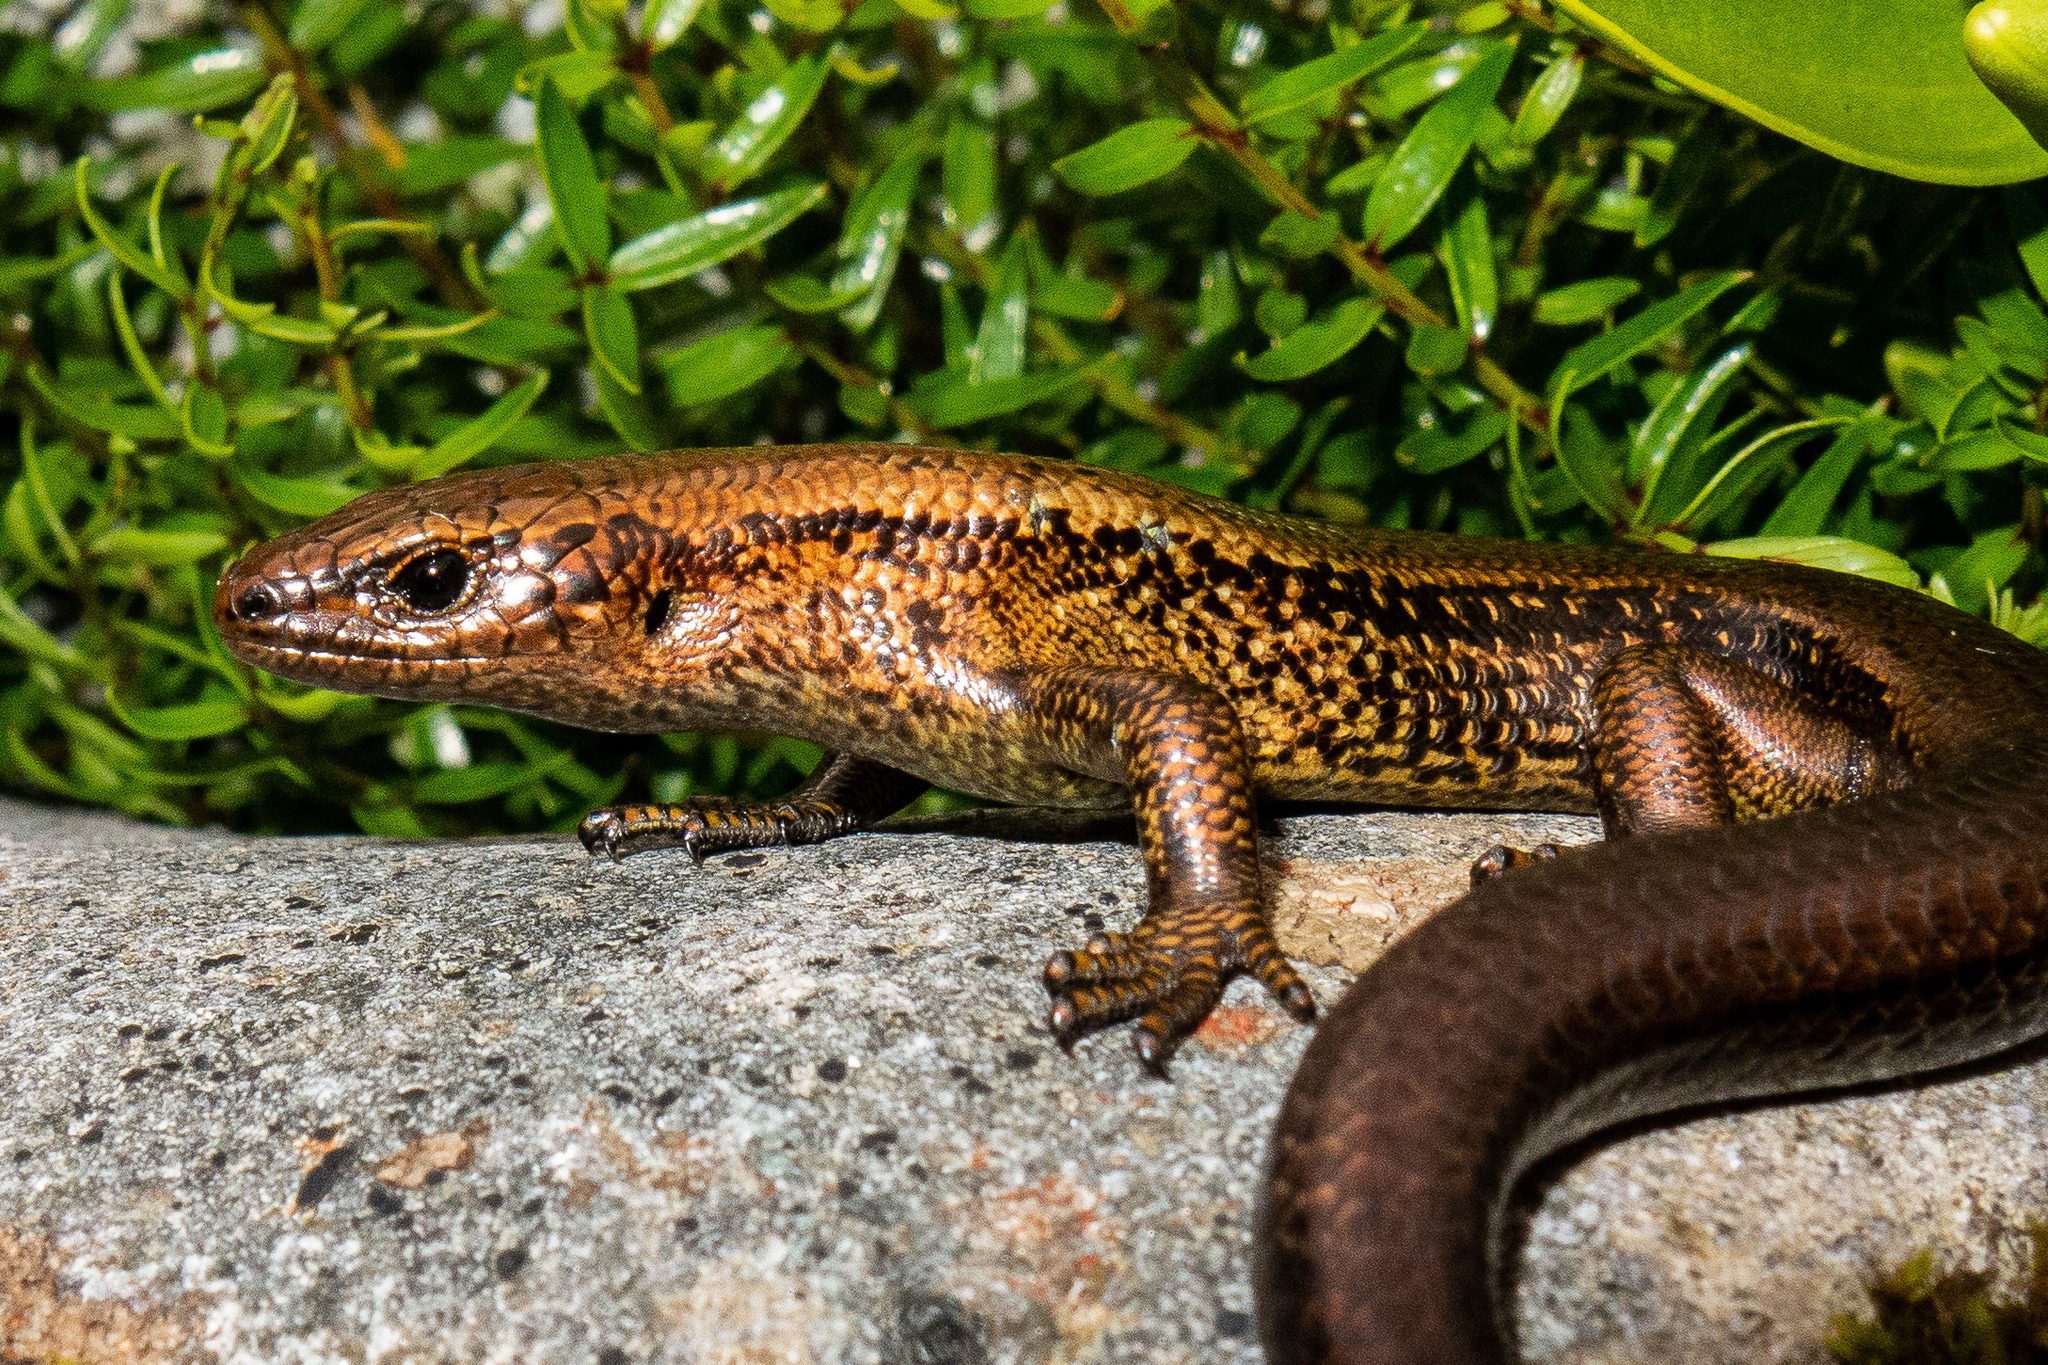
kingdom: Animalia
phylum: Chordata
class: Squamata
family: Scincidae
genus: Oligosoma
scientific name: Oligosoma awakopaka
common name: Awakopaka skink
